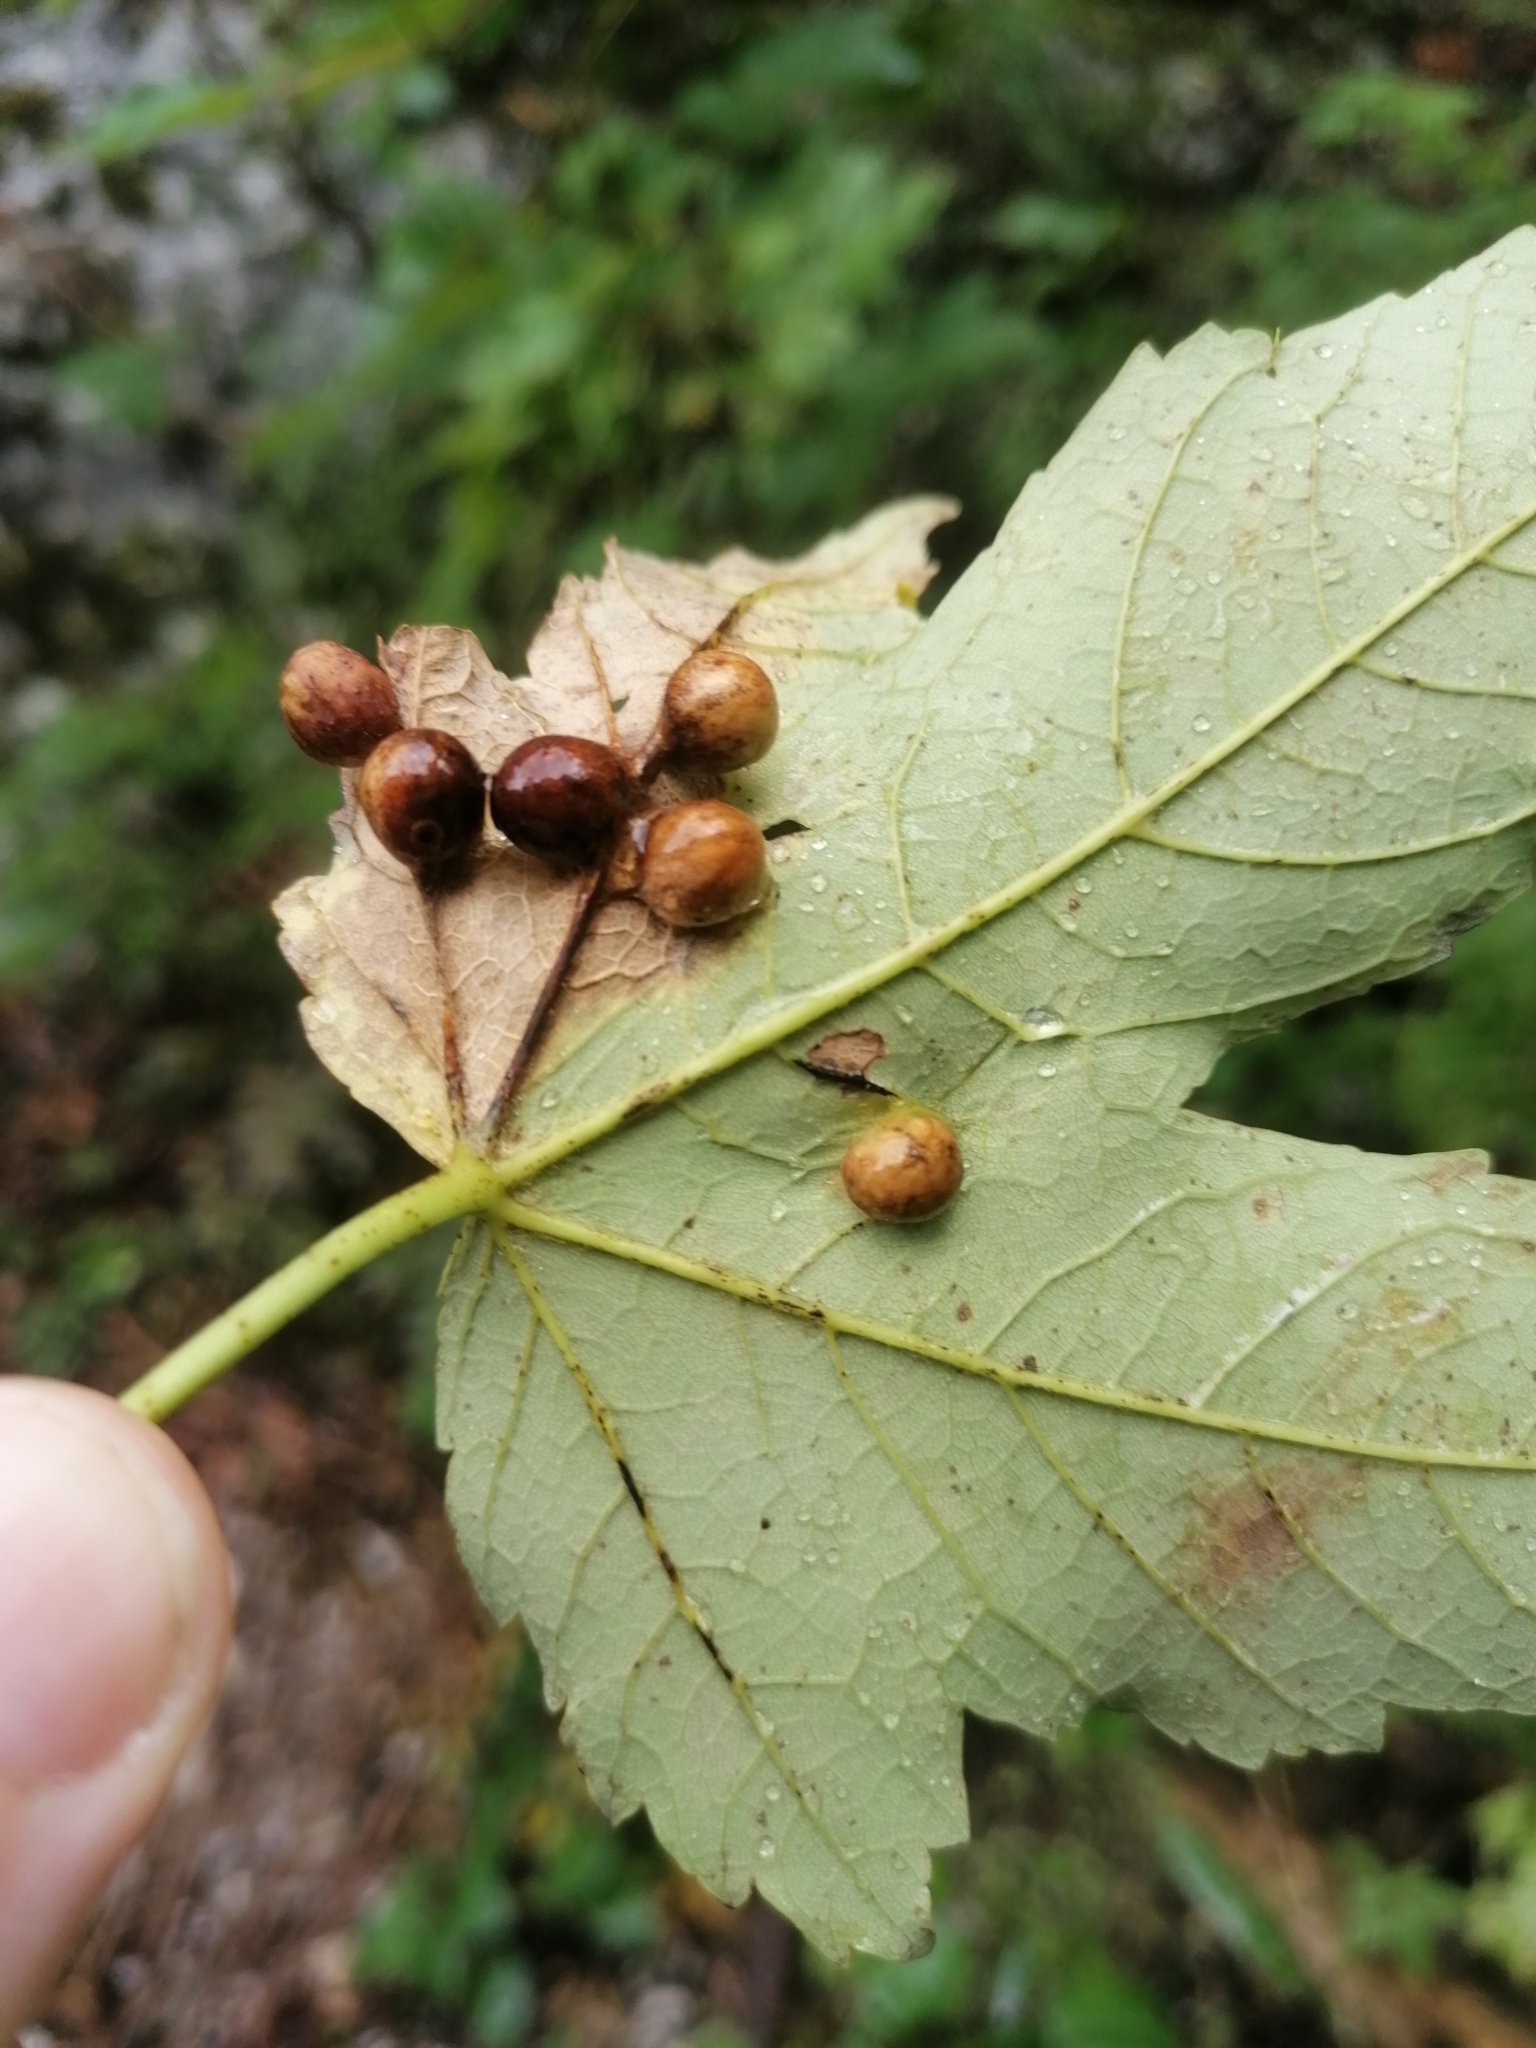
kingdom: Animalia
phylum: Arthropoda
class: Insecta
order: Hymenoptera
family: Cynipidae
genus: Pediaspis
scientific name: Pediaspis aceris
